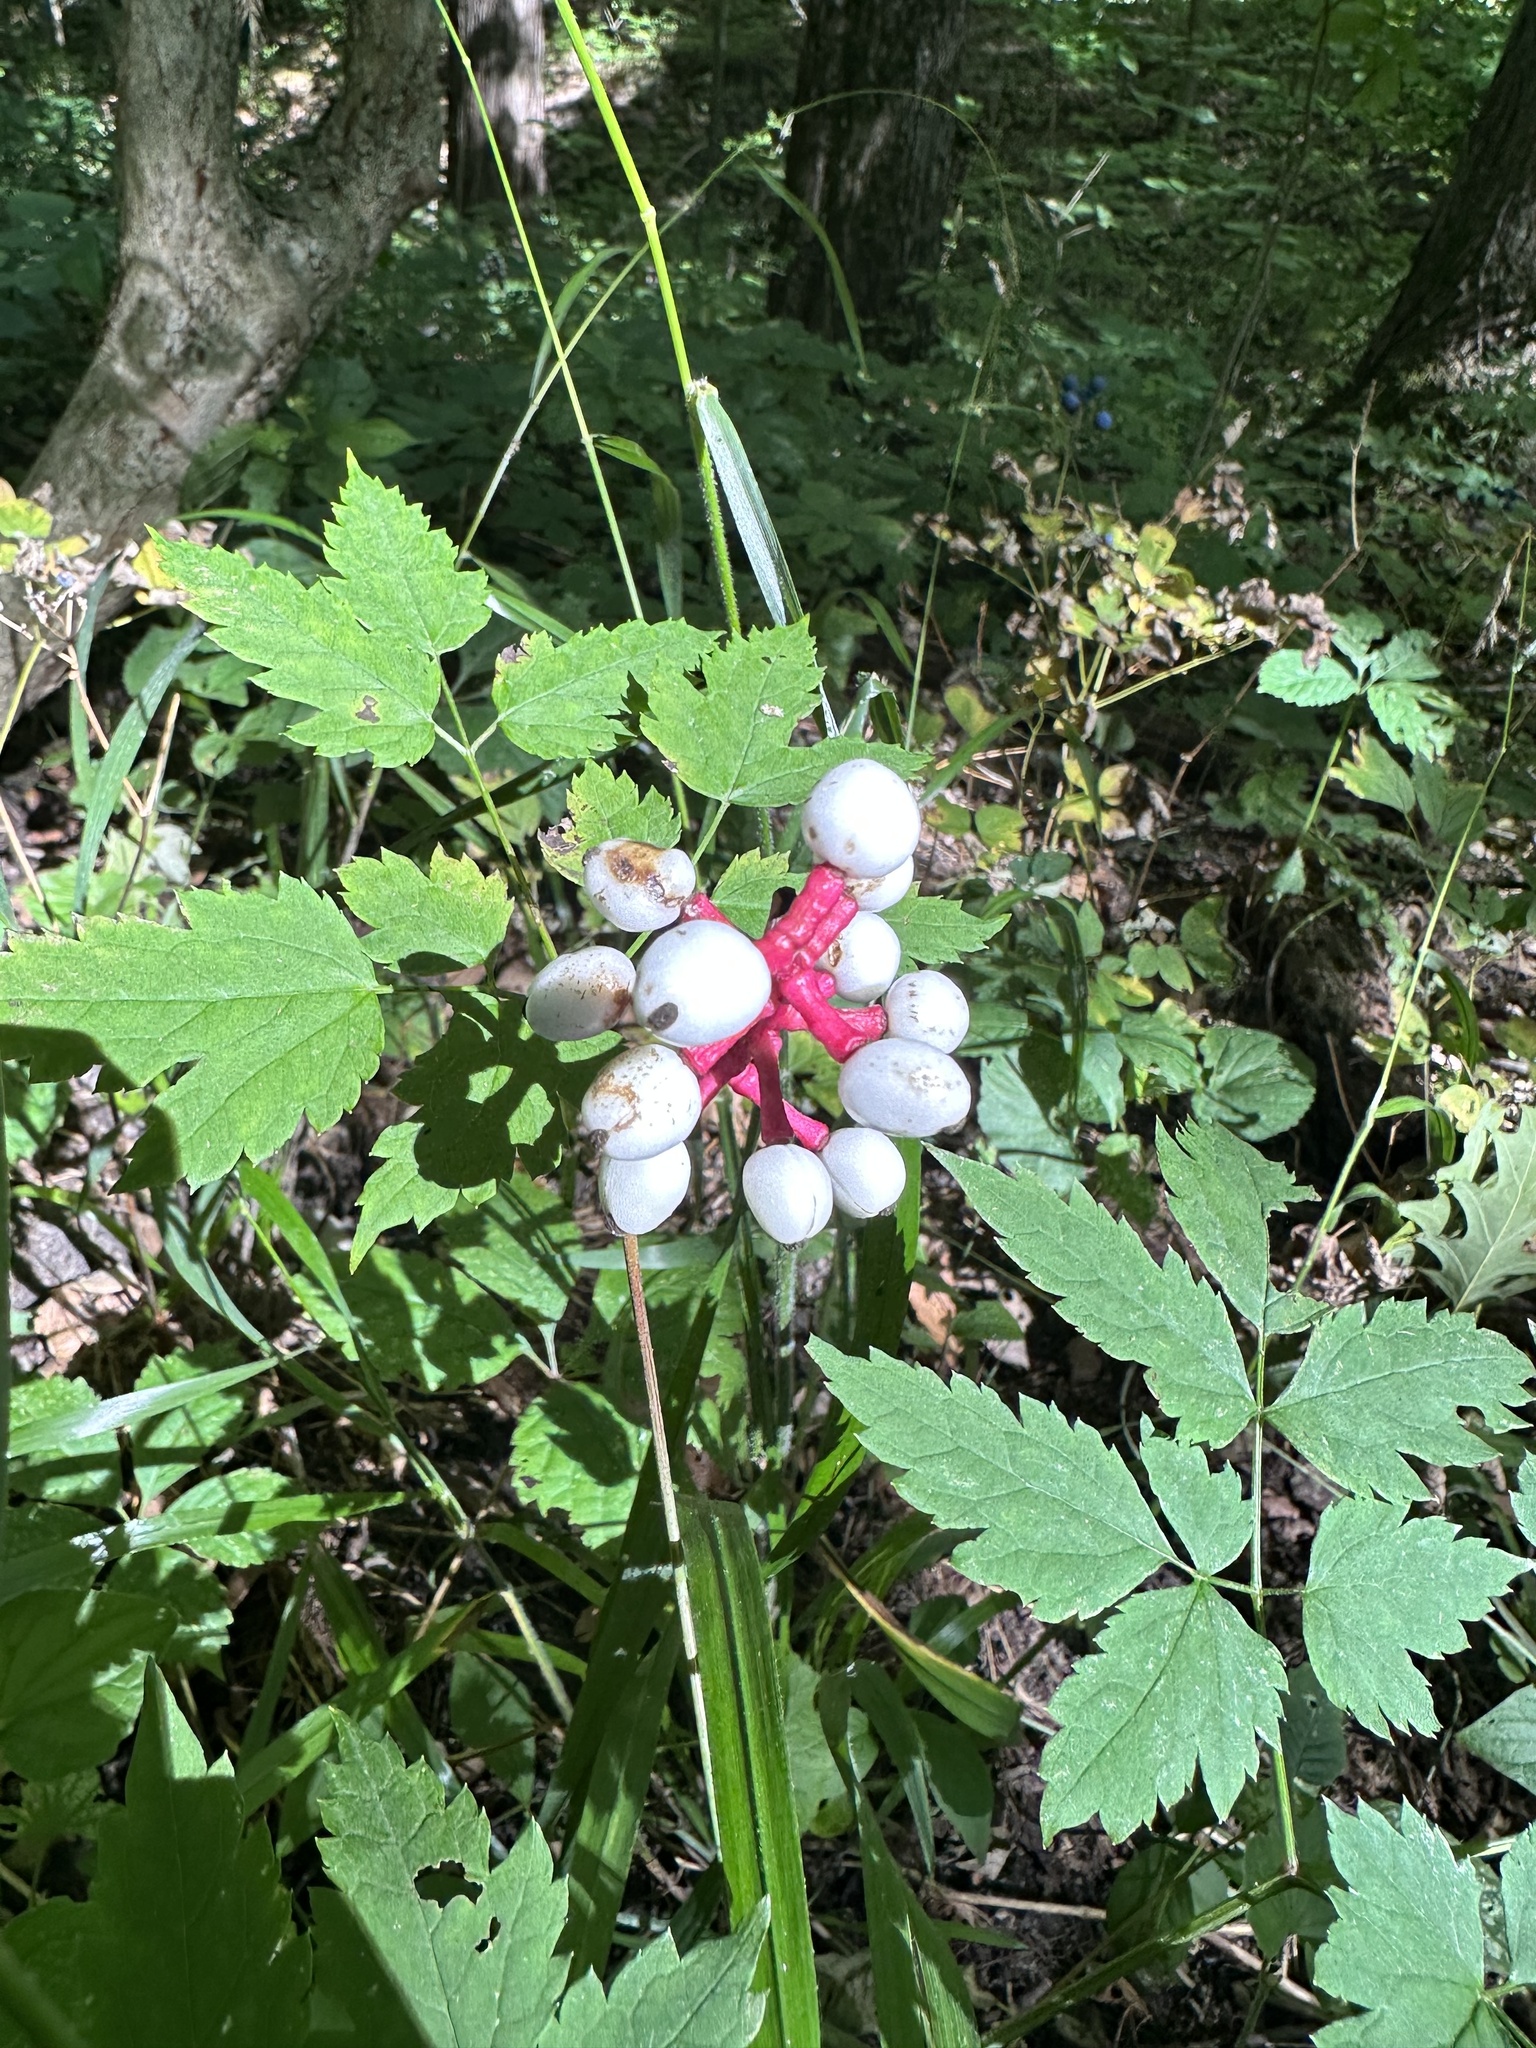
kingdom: Plantae
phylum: Tracheophyta
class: Magnoliopsida
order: Ranunculales
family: Ranunculaceae
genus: Actaea
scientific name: Actaea pachypoda
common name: Doll's-eyes
